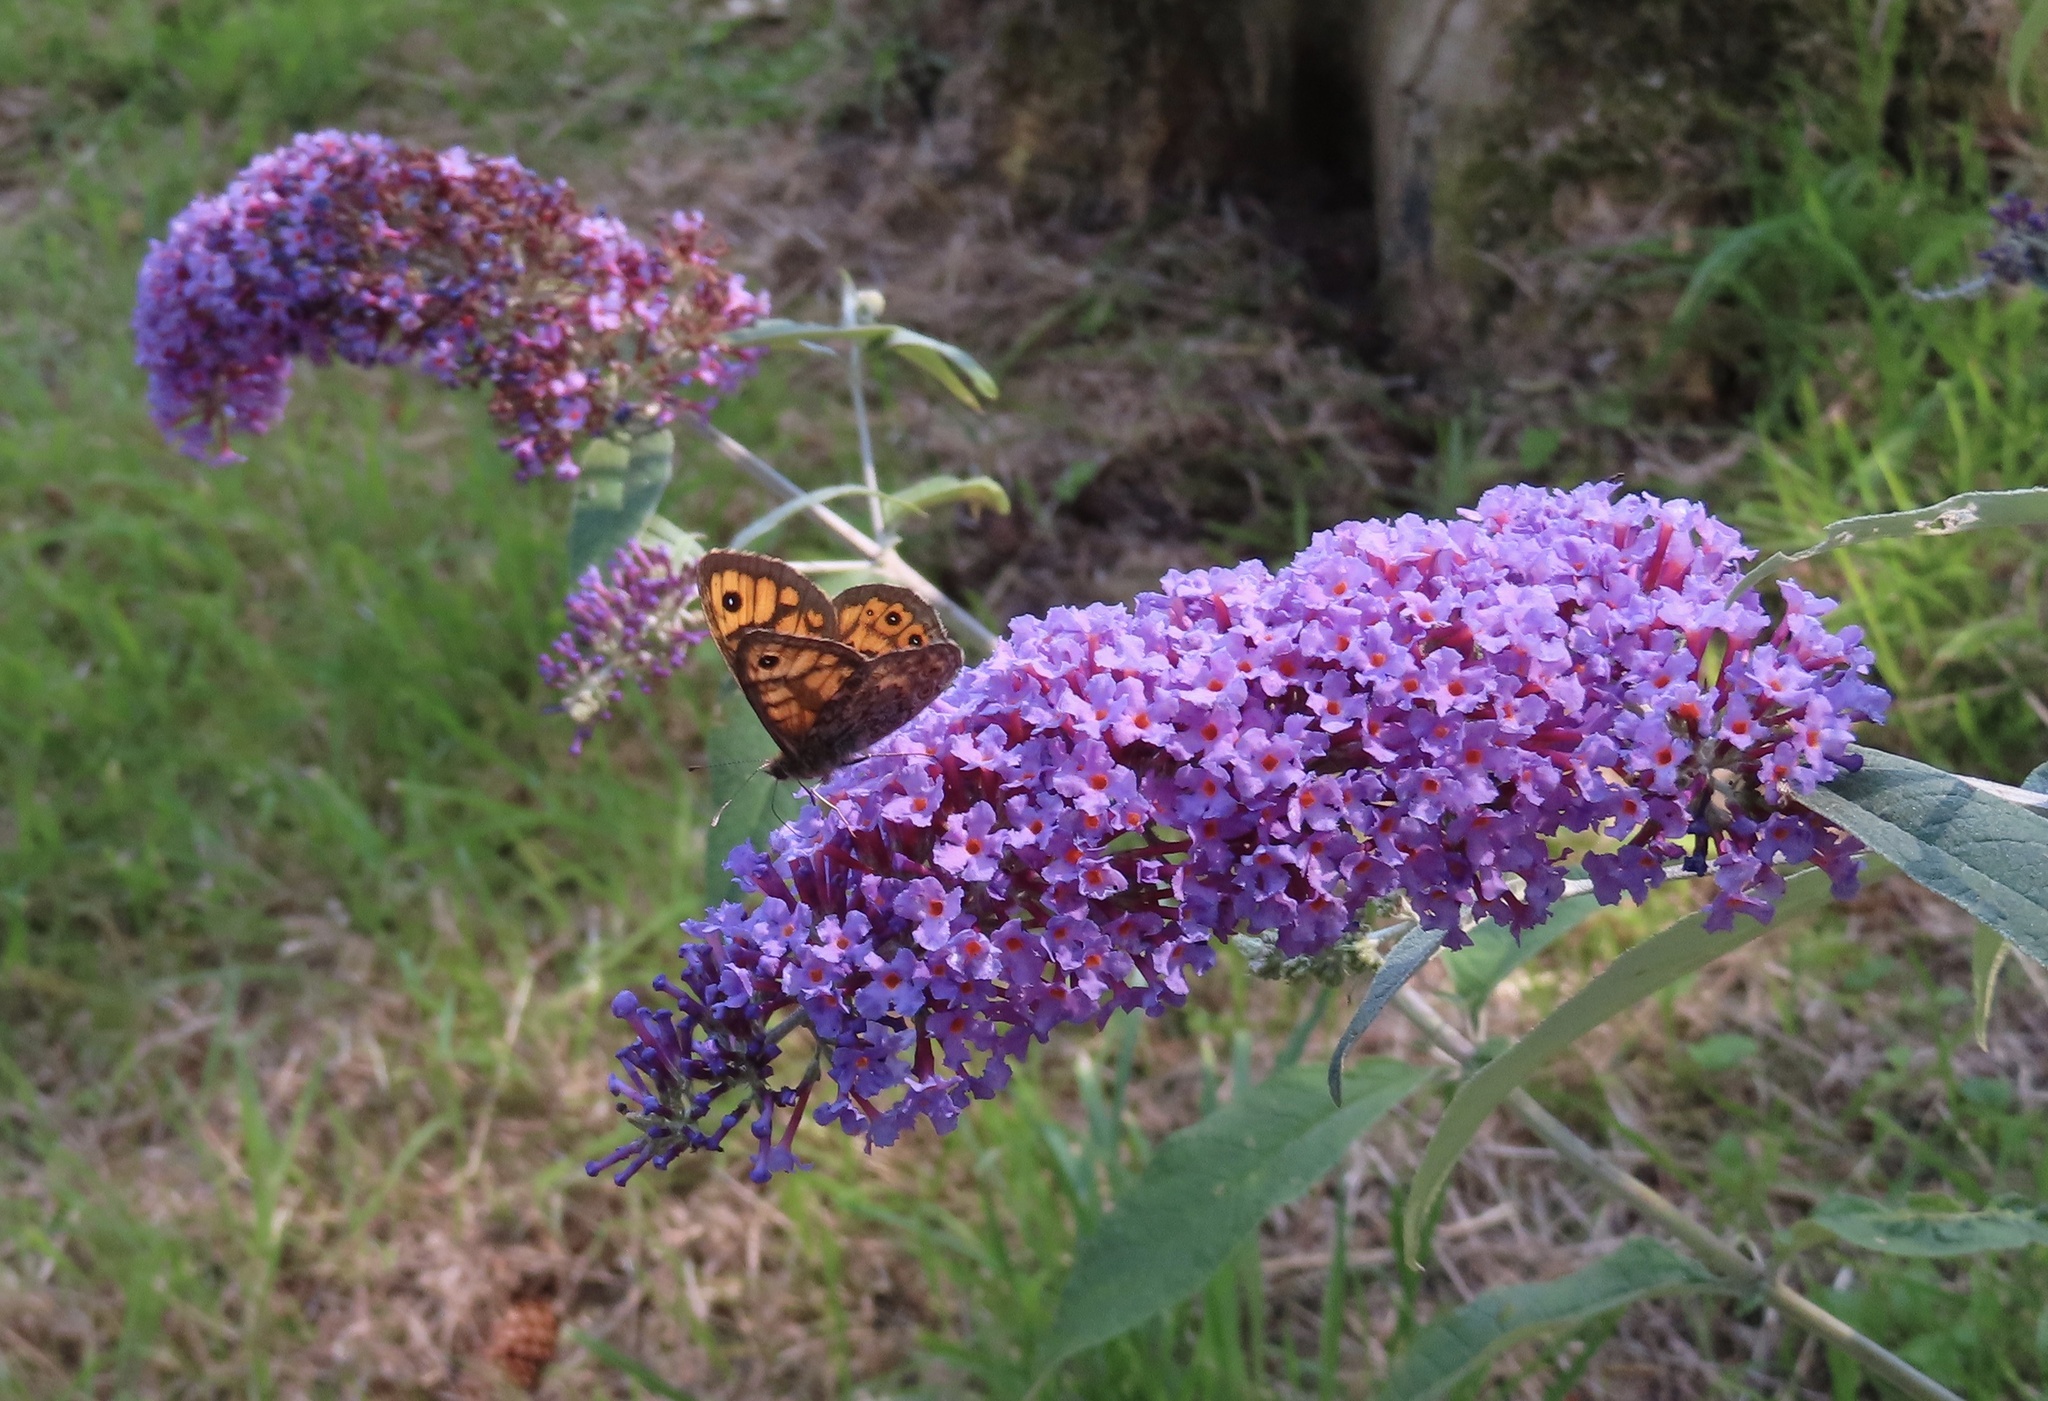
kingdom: Animalia
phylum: Arthropoda
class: Insecta
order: Lepidoptera
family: Nymphalidae
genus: Pararge
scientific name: Pararge Lasiommata megera
